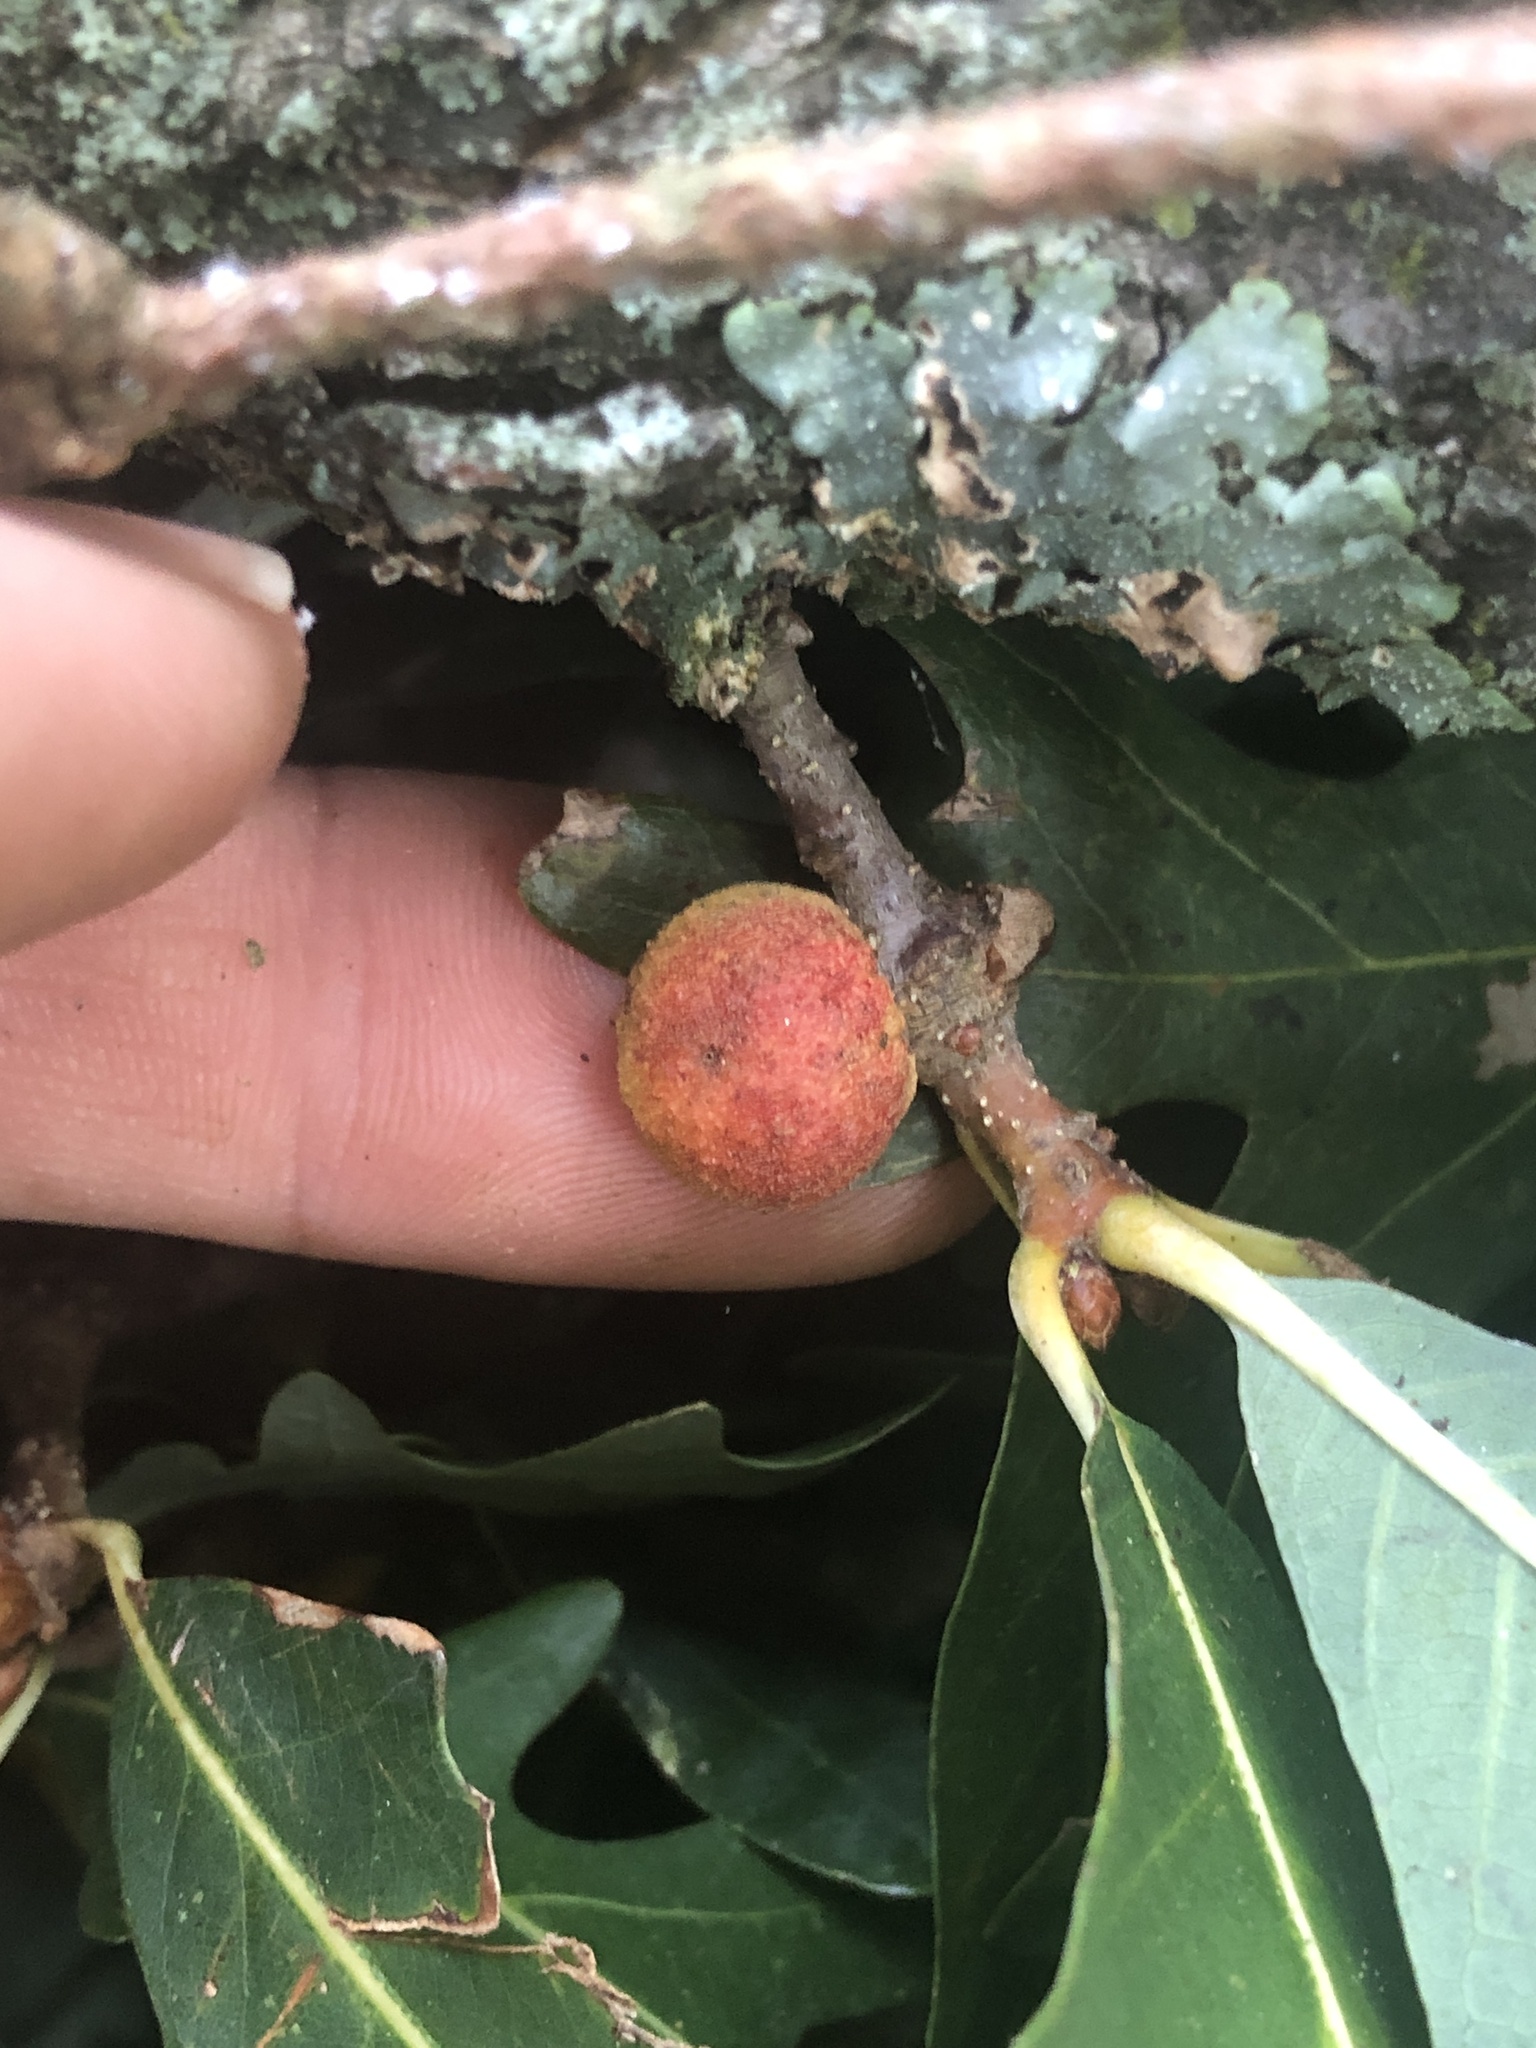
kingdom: Animalia
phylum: Arthropoda
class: Insecta
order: Hymenoptera
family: Cynipidae
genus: Disholcaspis
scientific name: Disholcaspis quercusglobulus
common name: Round bullet gall wasp
